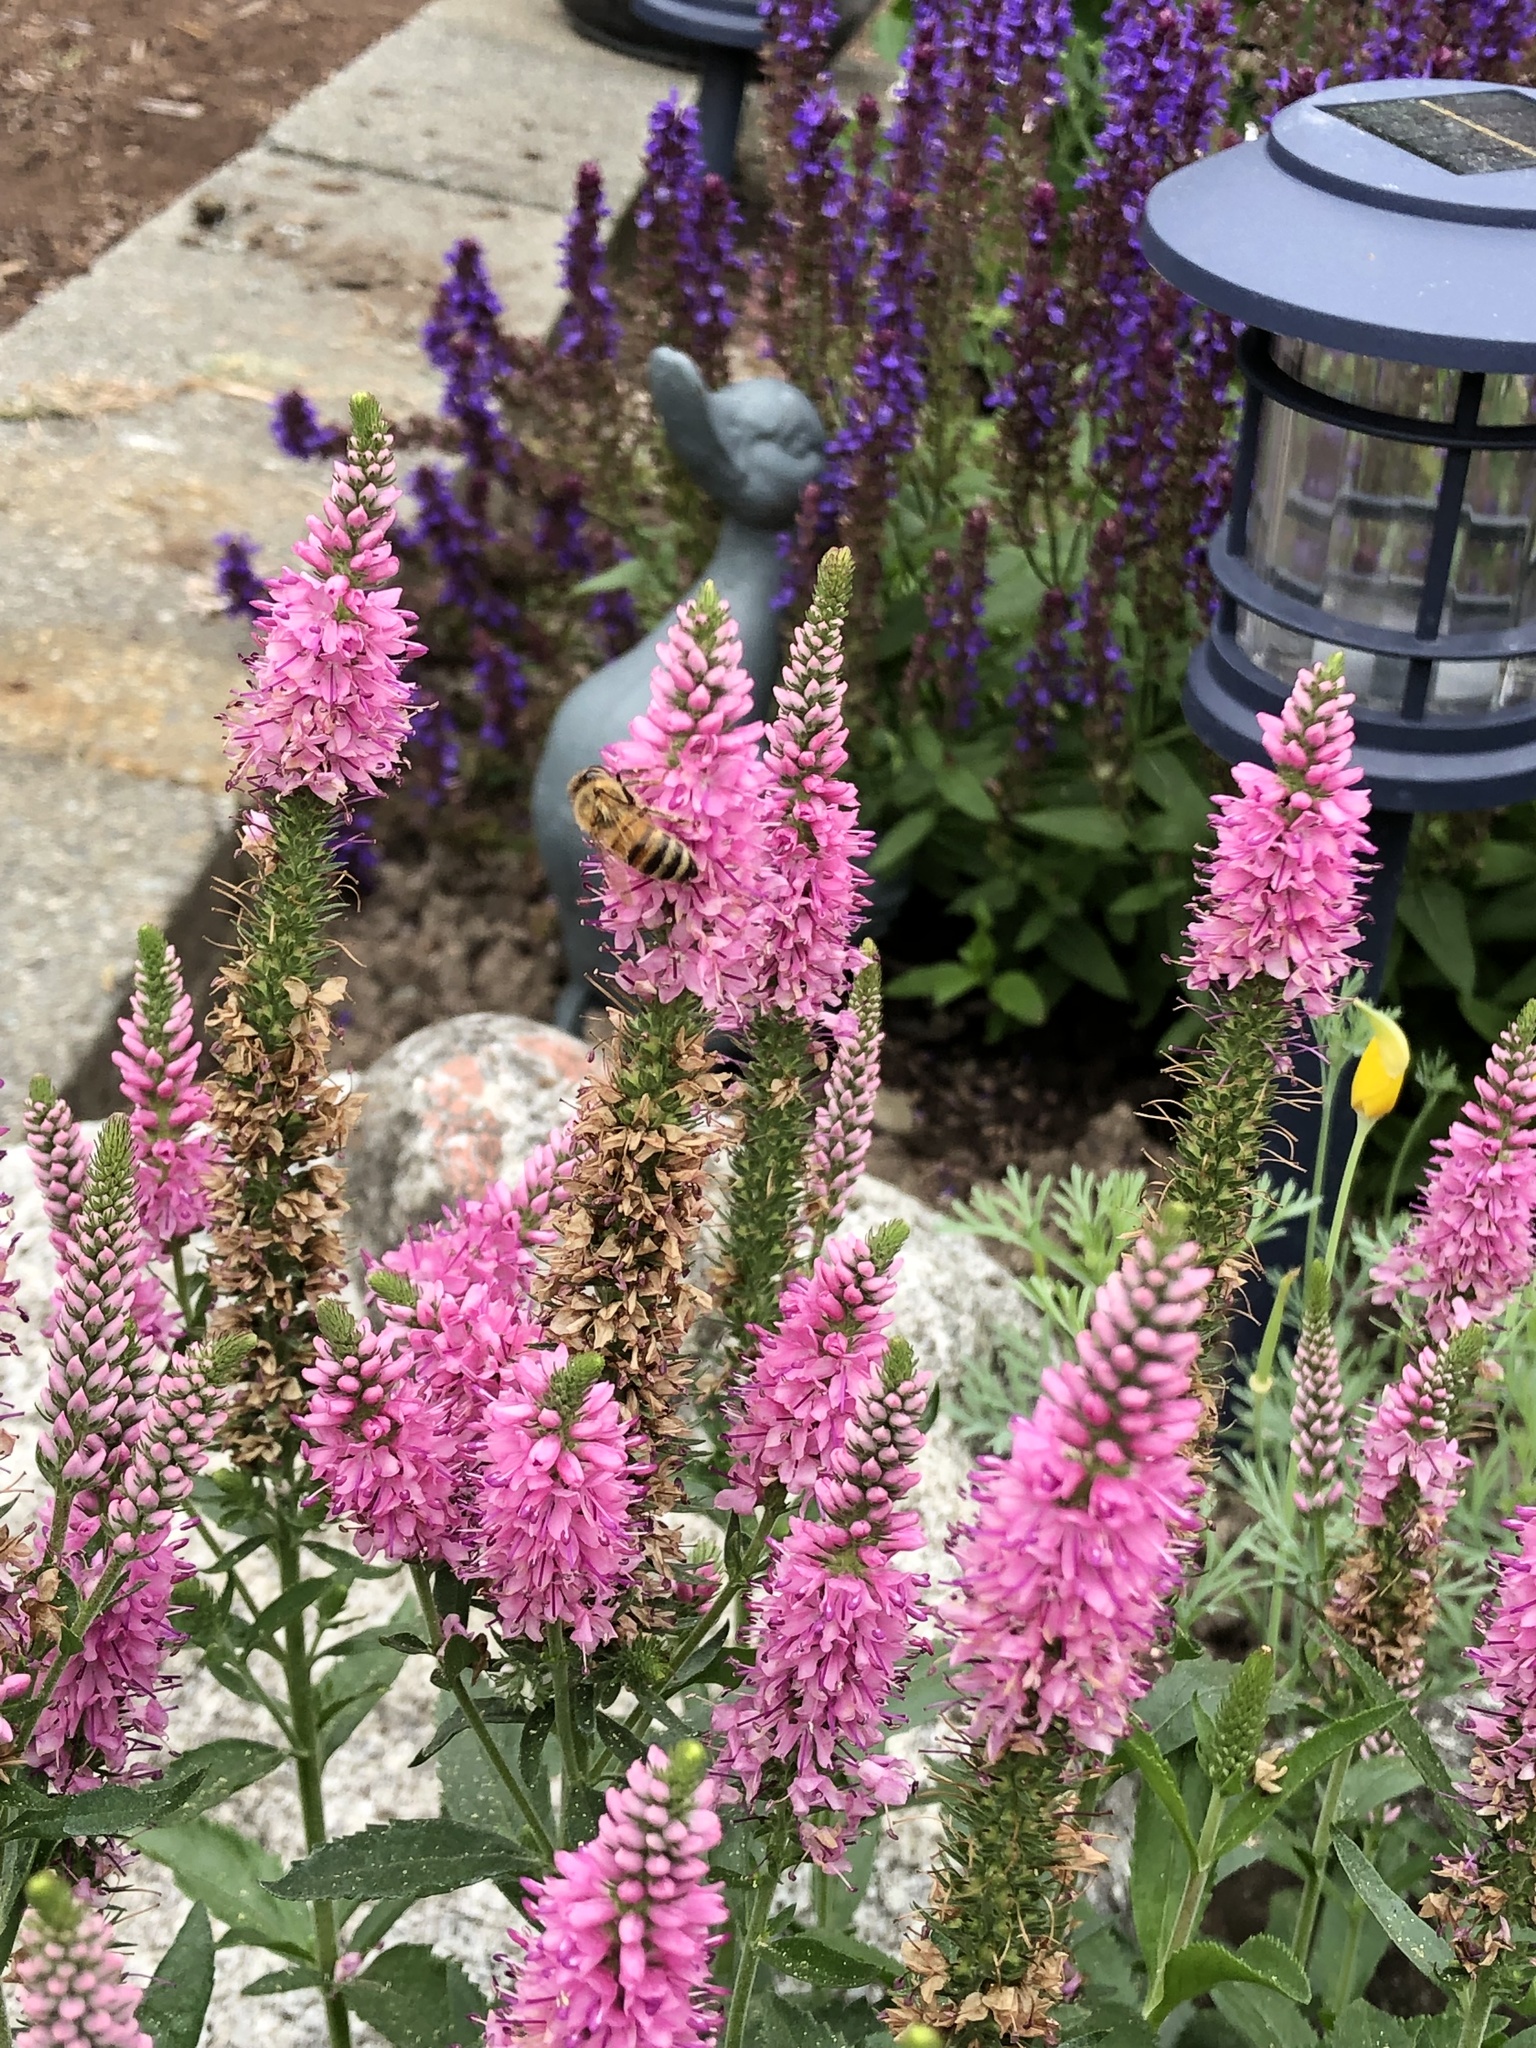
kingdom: Animalia
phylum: Arthropoda
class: Insecta
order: Hymenoptera
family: Apidae
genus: Apis
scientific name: Apis mellifera
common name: Honey bee
